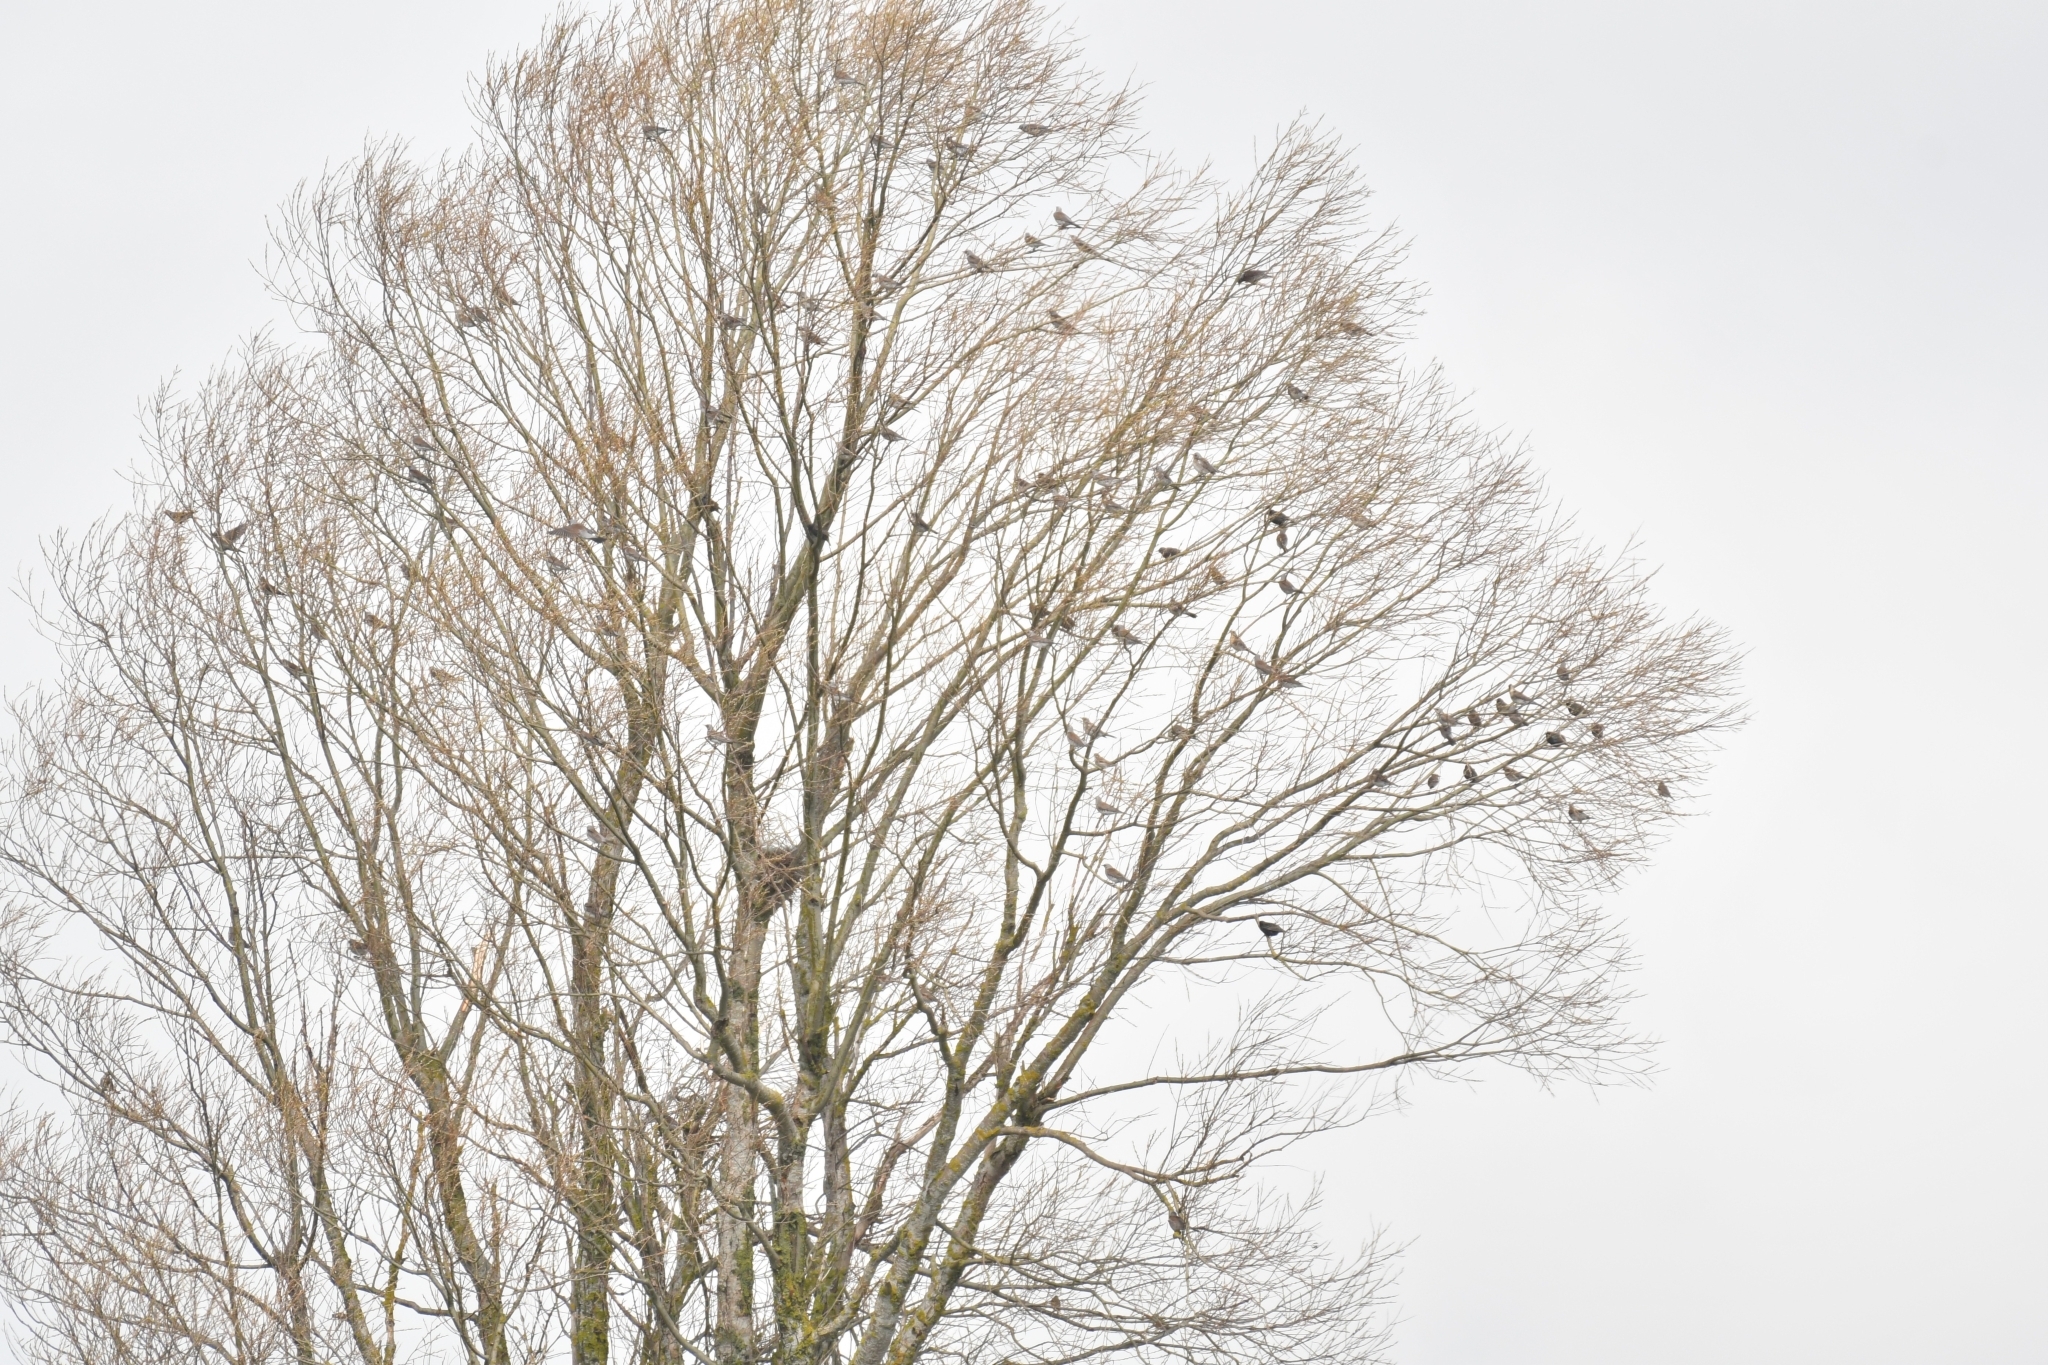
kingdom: Animalia
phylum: Chordata
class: Aves
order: Passeriformes
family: Turdidae
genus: Turdus
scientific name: Turdus pilaris
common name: Fieldfare
